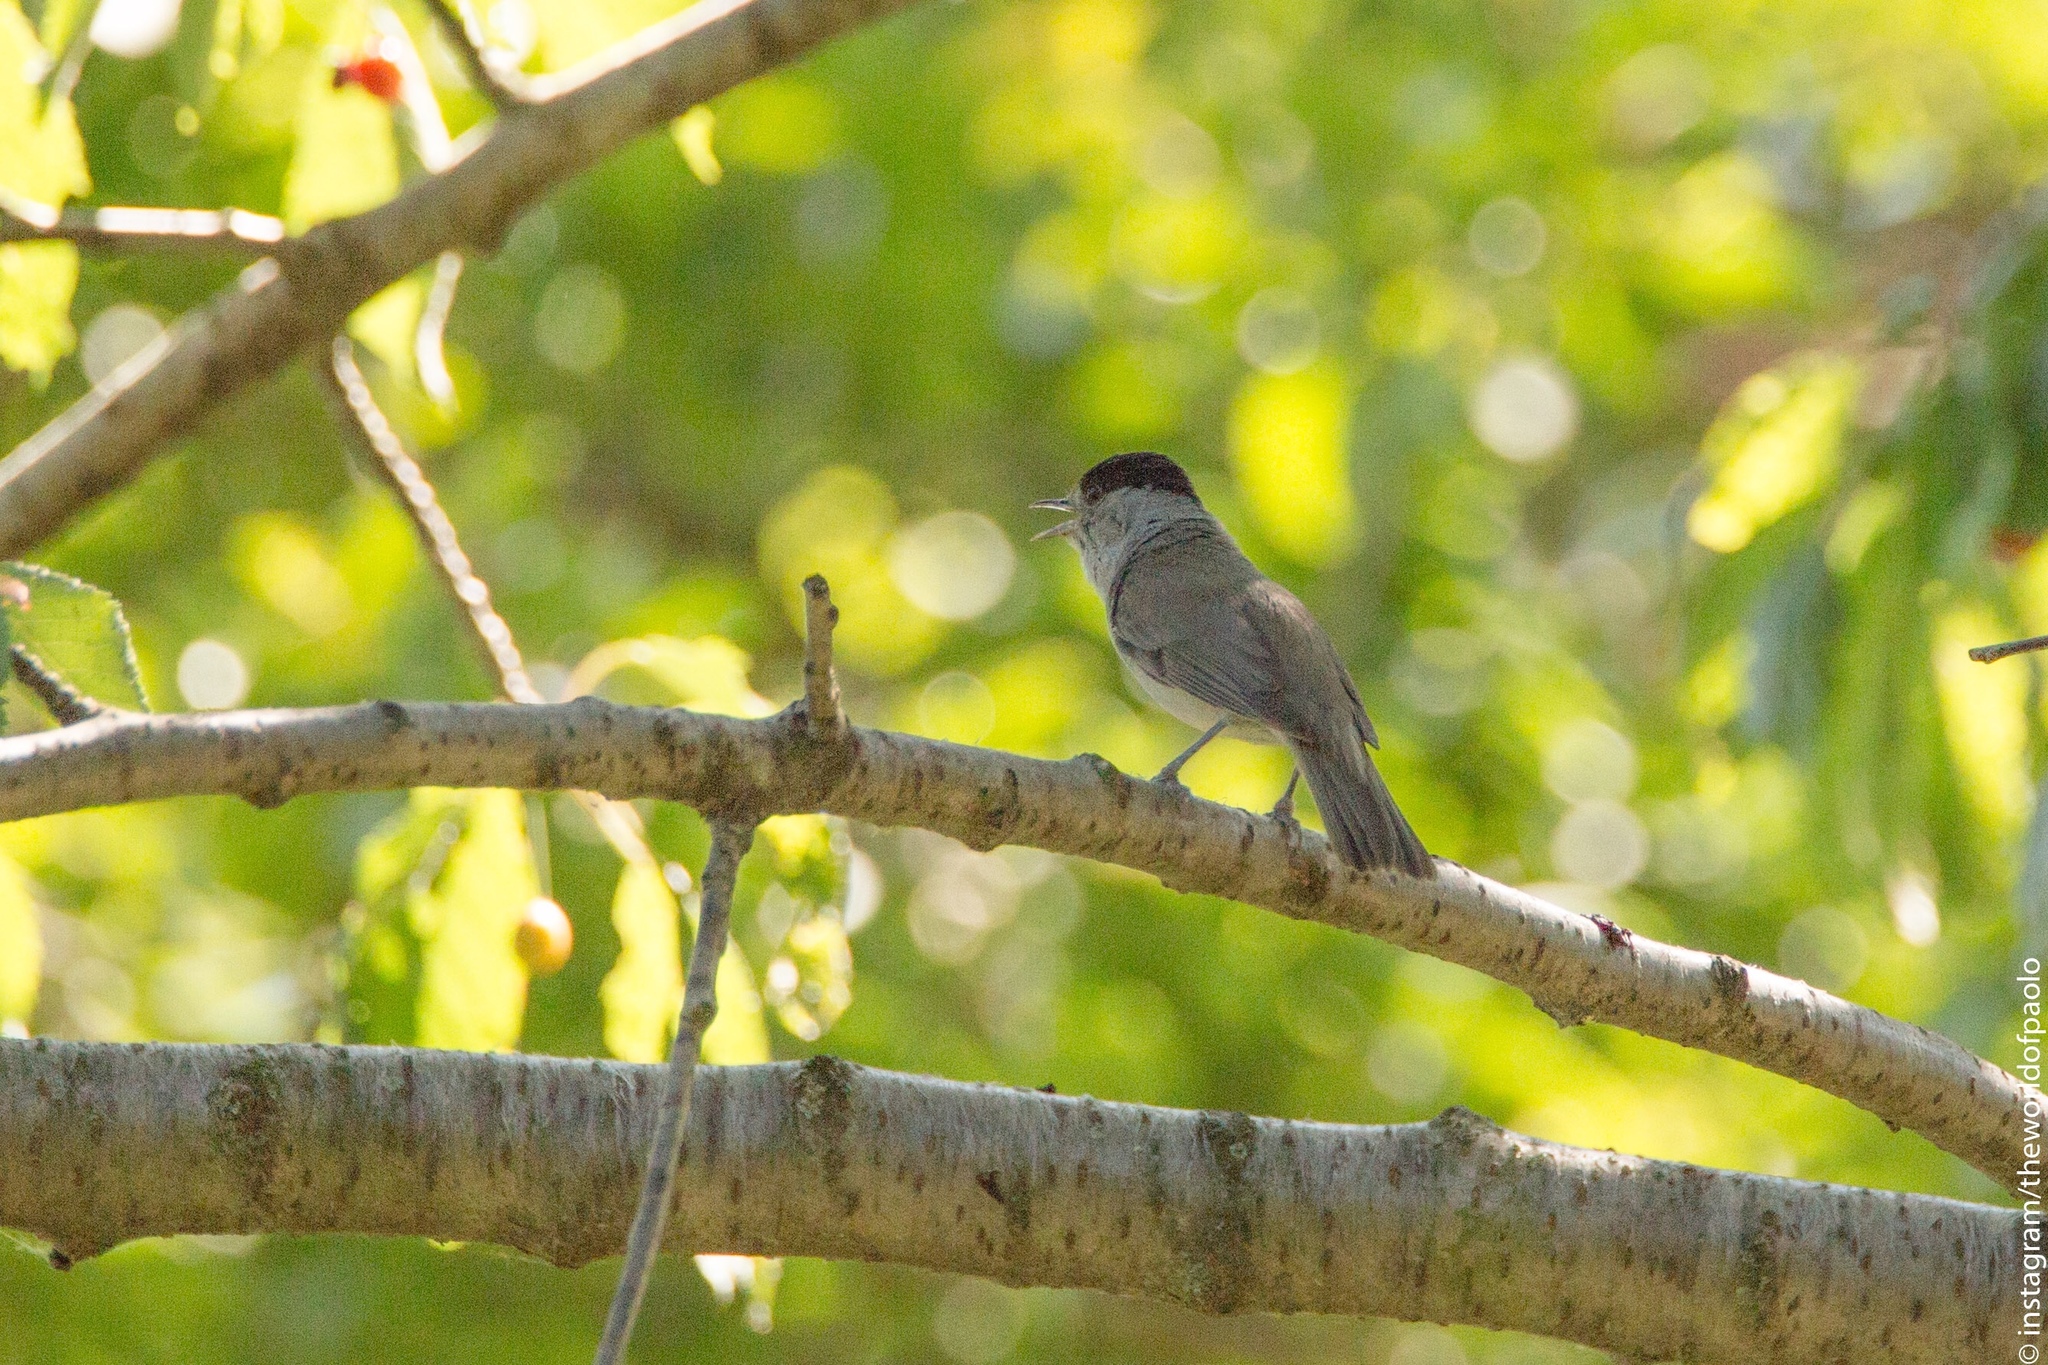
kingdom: Animalia
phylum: Chordata
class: Aves
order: Passeriformes
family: Sylviidae
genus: Sylvia
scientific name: Sylvia atricapilla
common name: Eurasian blackcap
